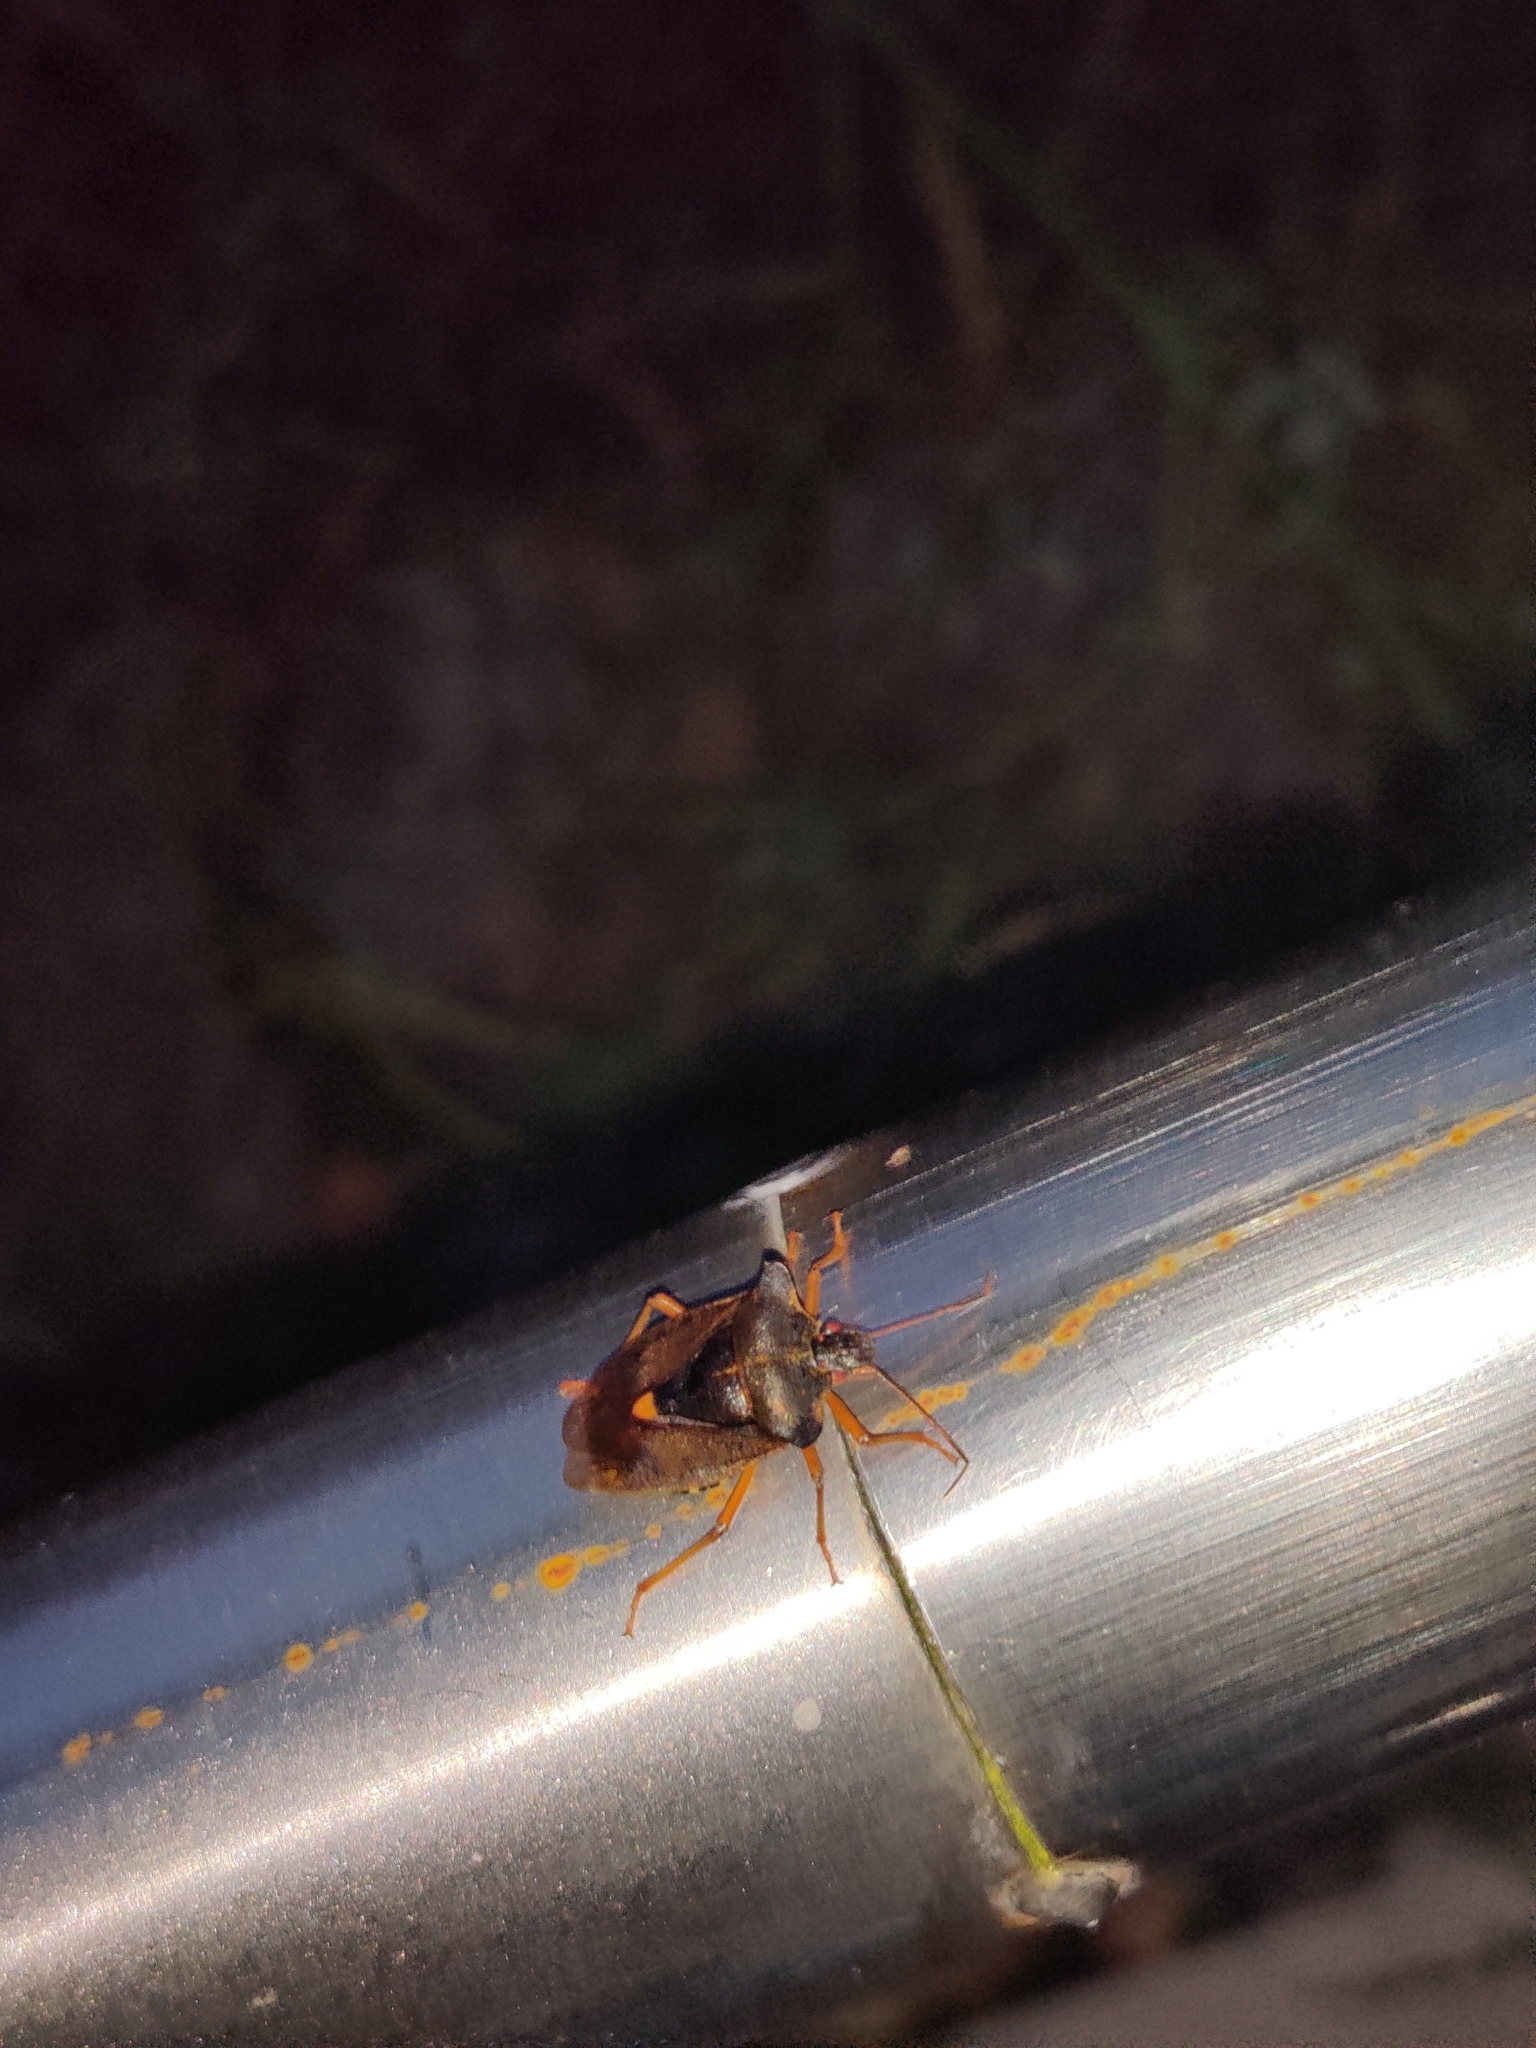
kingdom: Animalia
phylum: Arthropoda
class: Insecta
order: Hemiptera
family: Pentatomidae
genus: Pentatoma
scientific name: Pentatoma rufipes
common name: Forest bug
